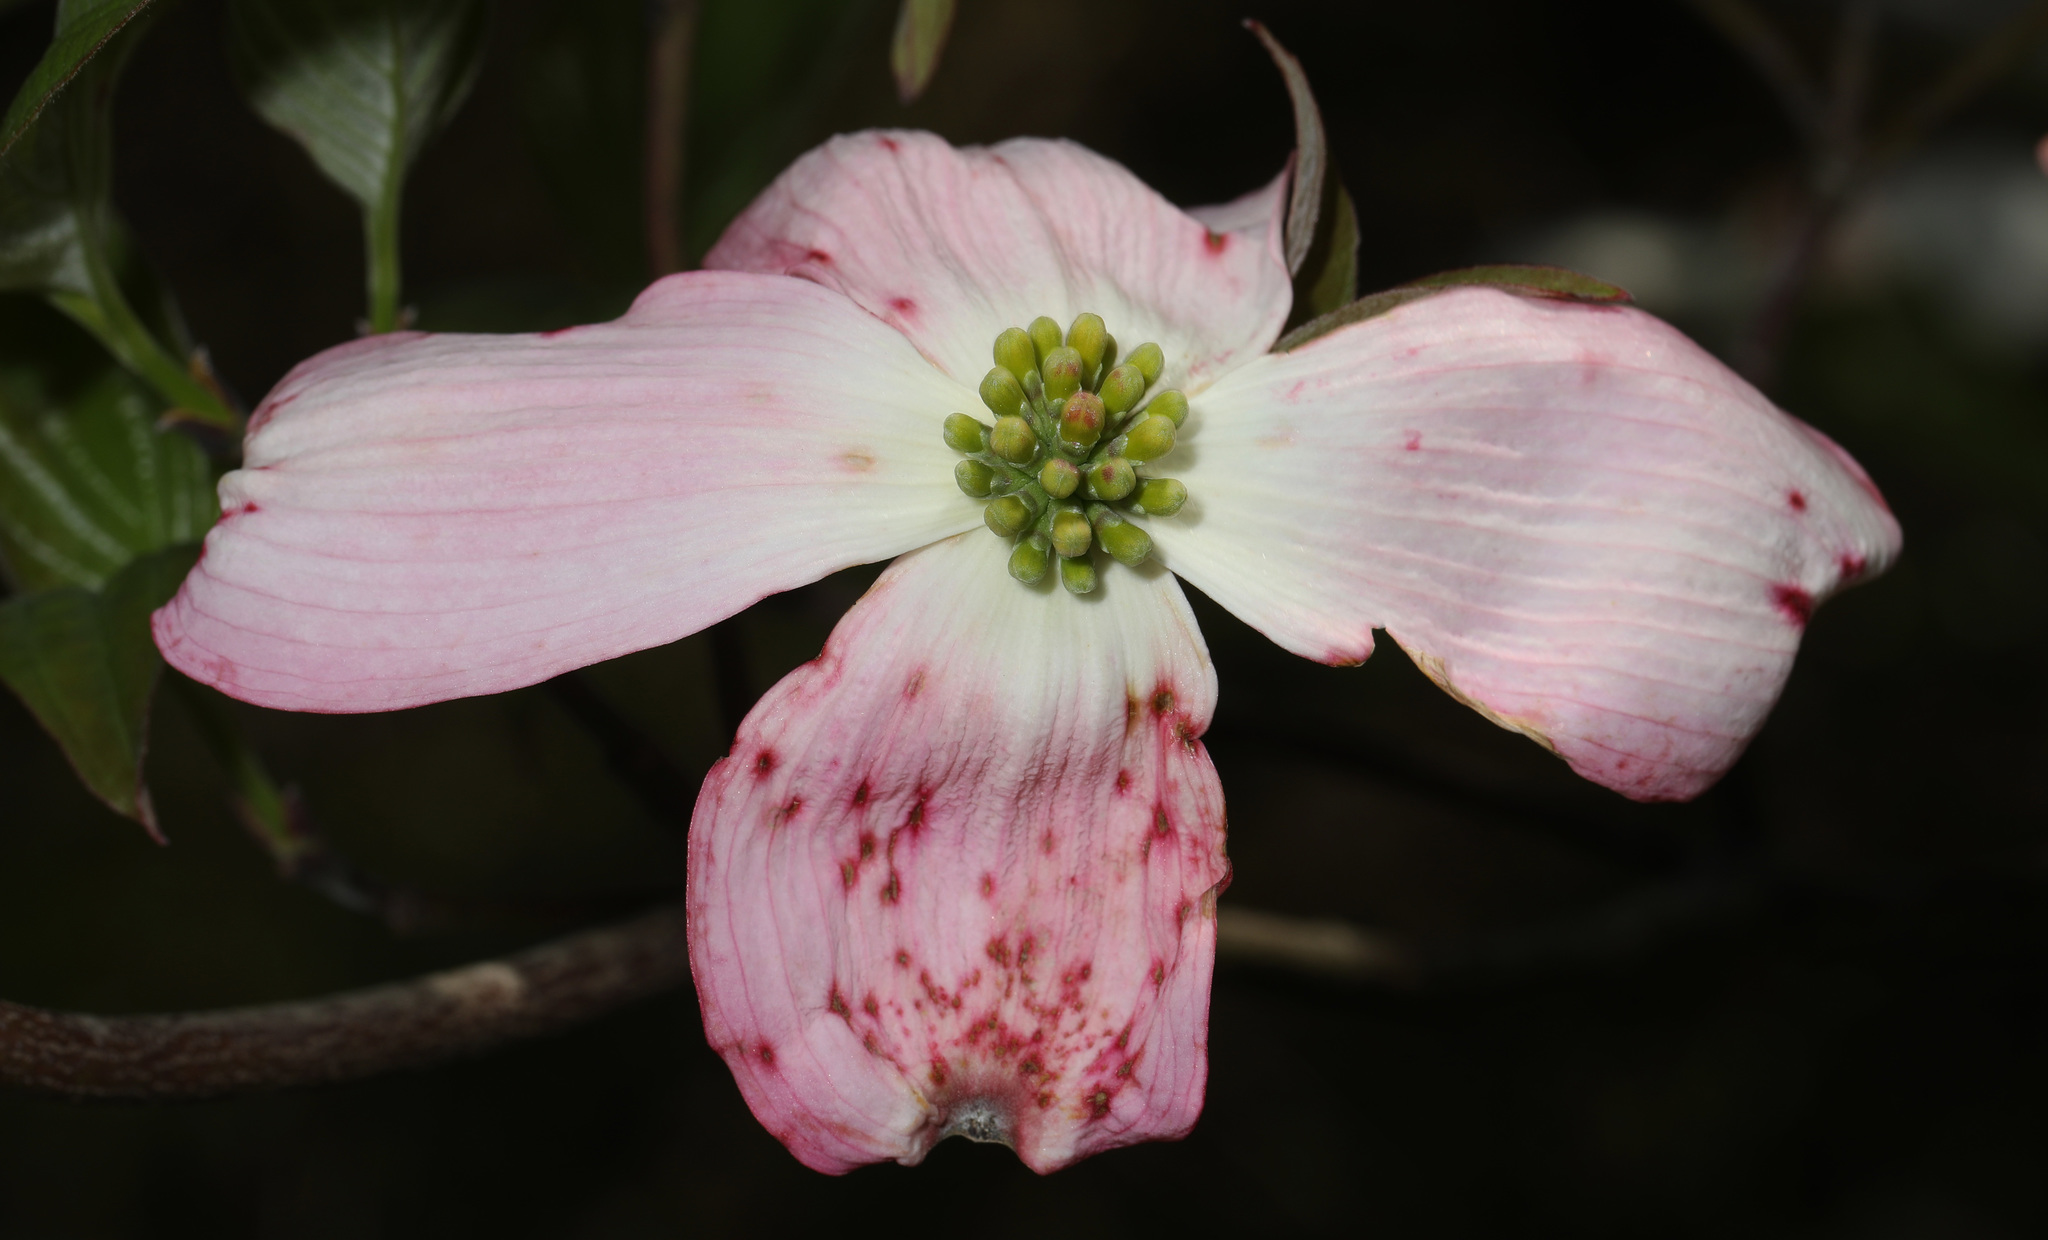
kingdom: Plantae
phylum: Tracheophyta
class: Magnoliopsida
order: Cornales
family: Cornaceae
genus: Cornus
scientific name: Cornus florida
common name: Flowering dogwood
